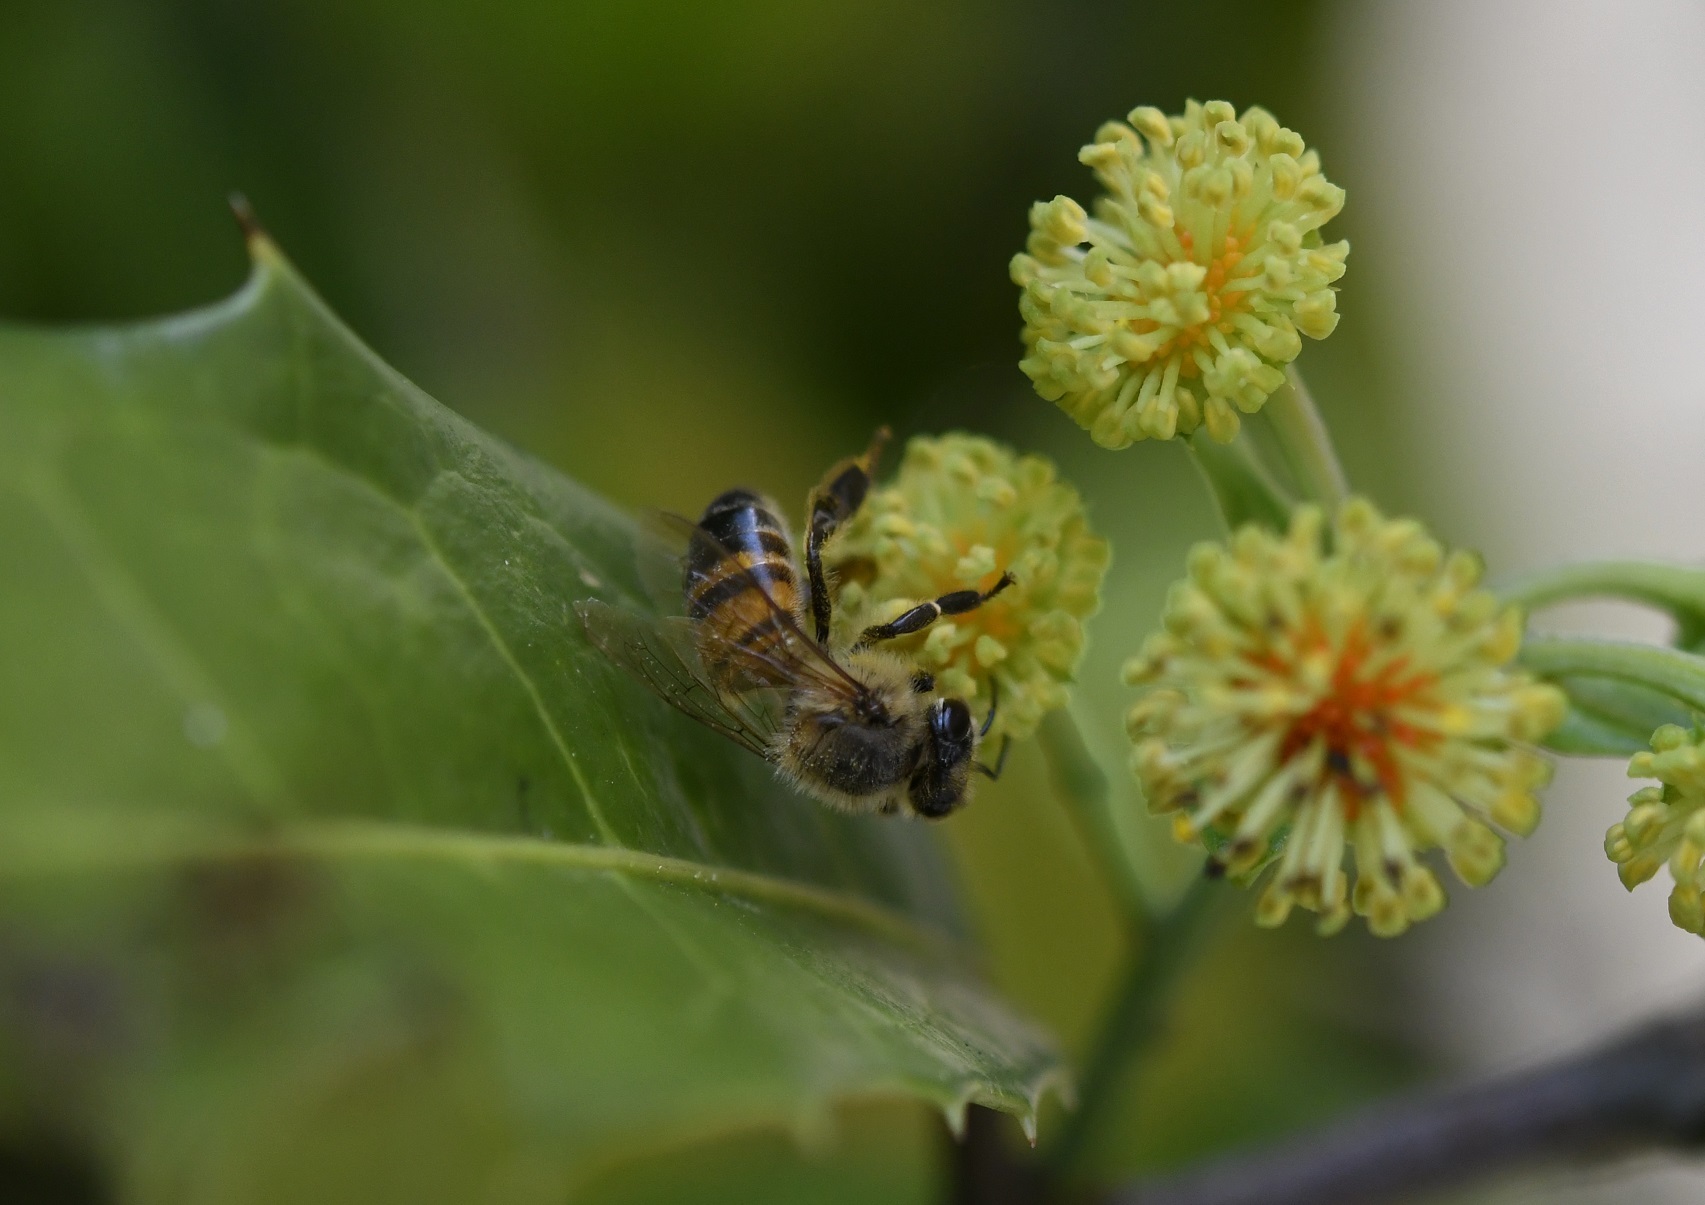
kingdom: Animalia
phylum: Arthropoda
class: Insecta
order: Hymenoptera
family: Apidae
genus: Apis
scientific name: Apis mellifera
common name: Honey bee
